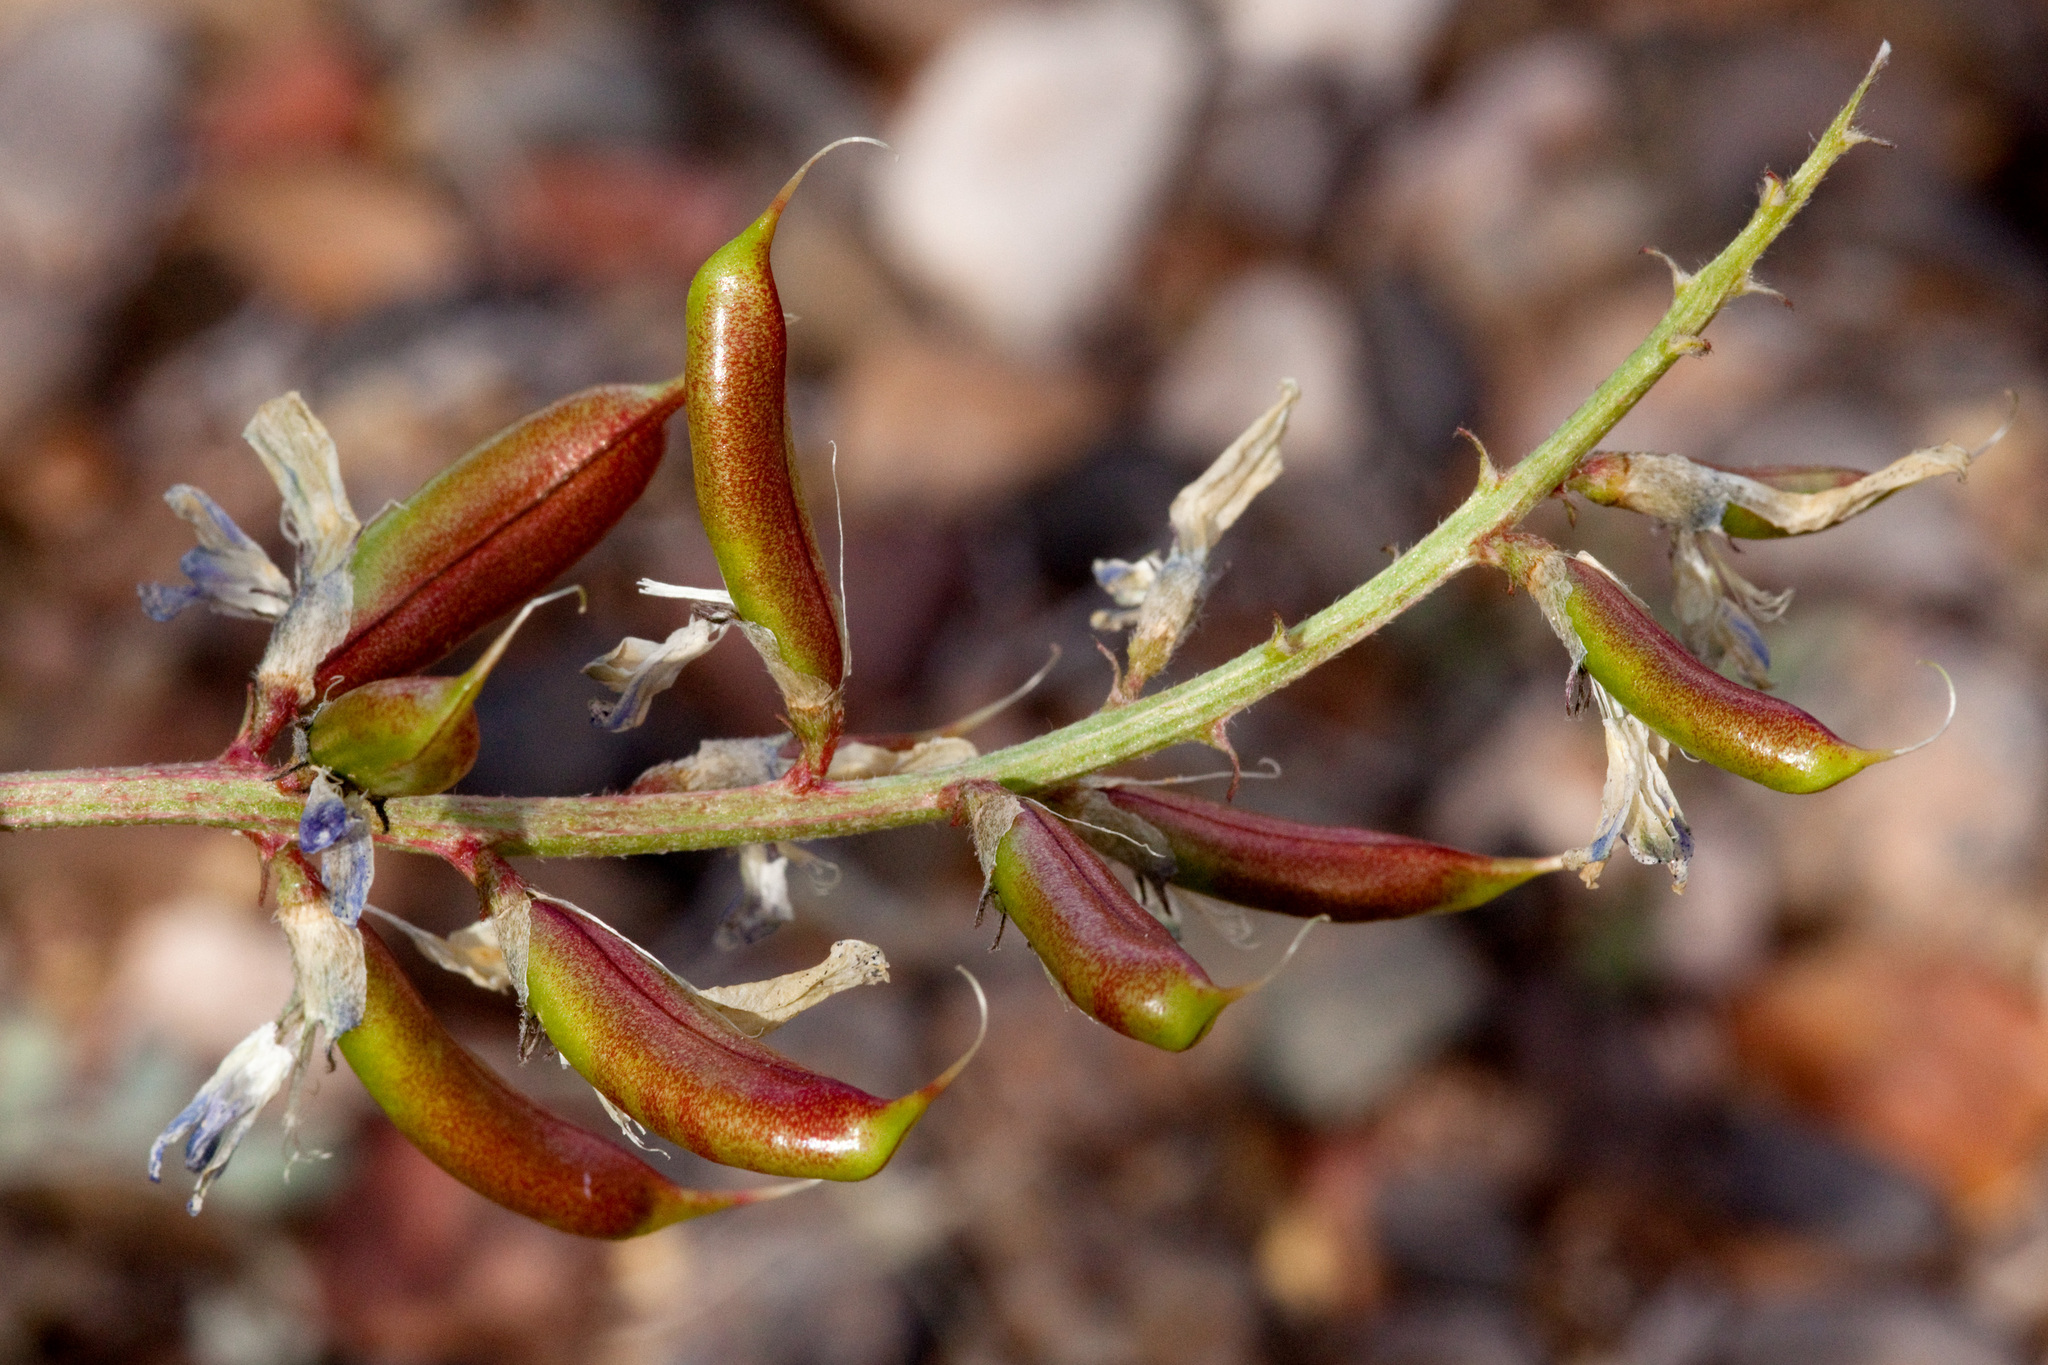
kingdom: Plantae
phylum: Tracheophyta
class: Magnoliopsida
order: Fabales
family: Fabaceae
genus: Astragalus
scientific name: Astragalus lentiginosus
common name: Freckled milkvetch
